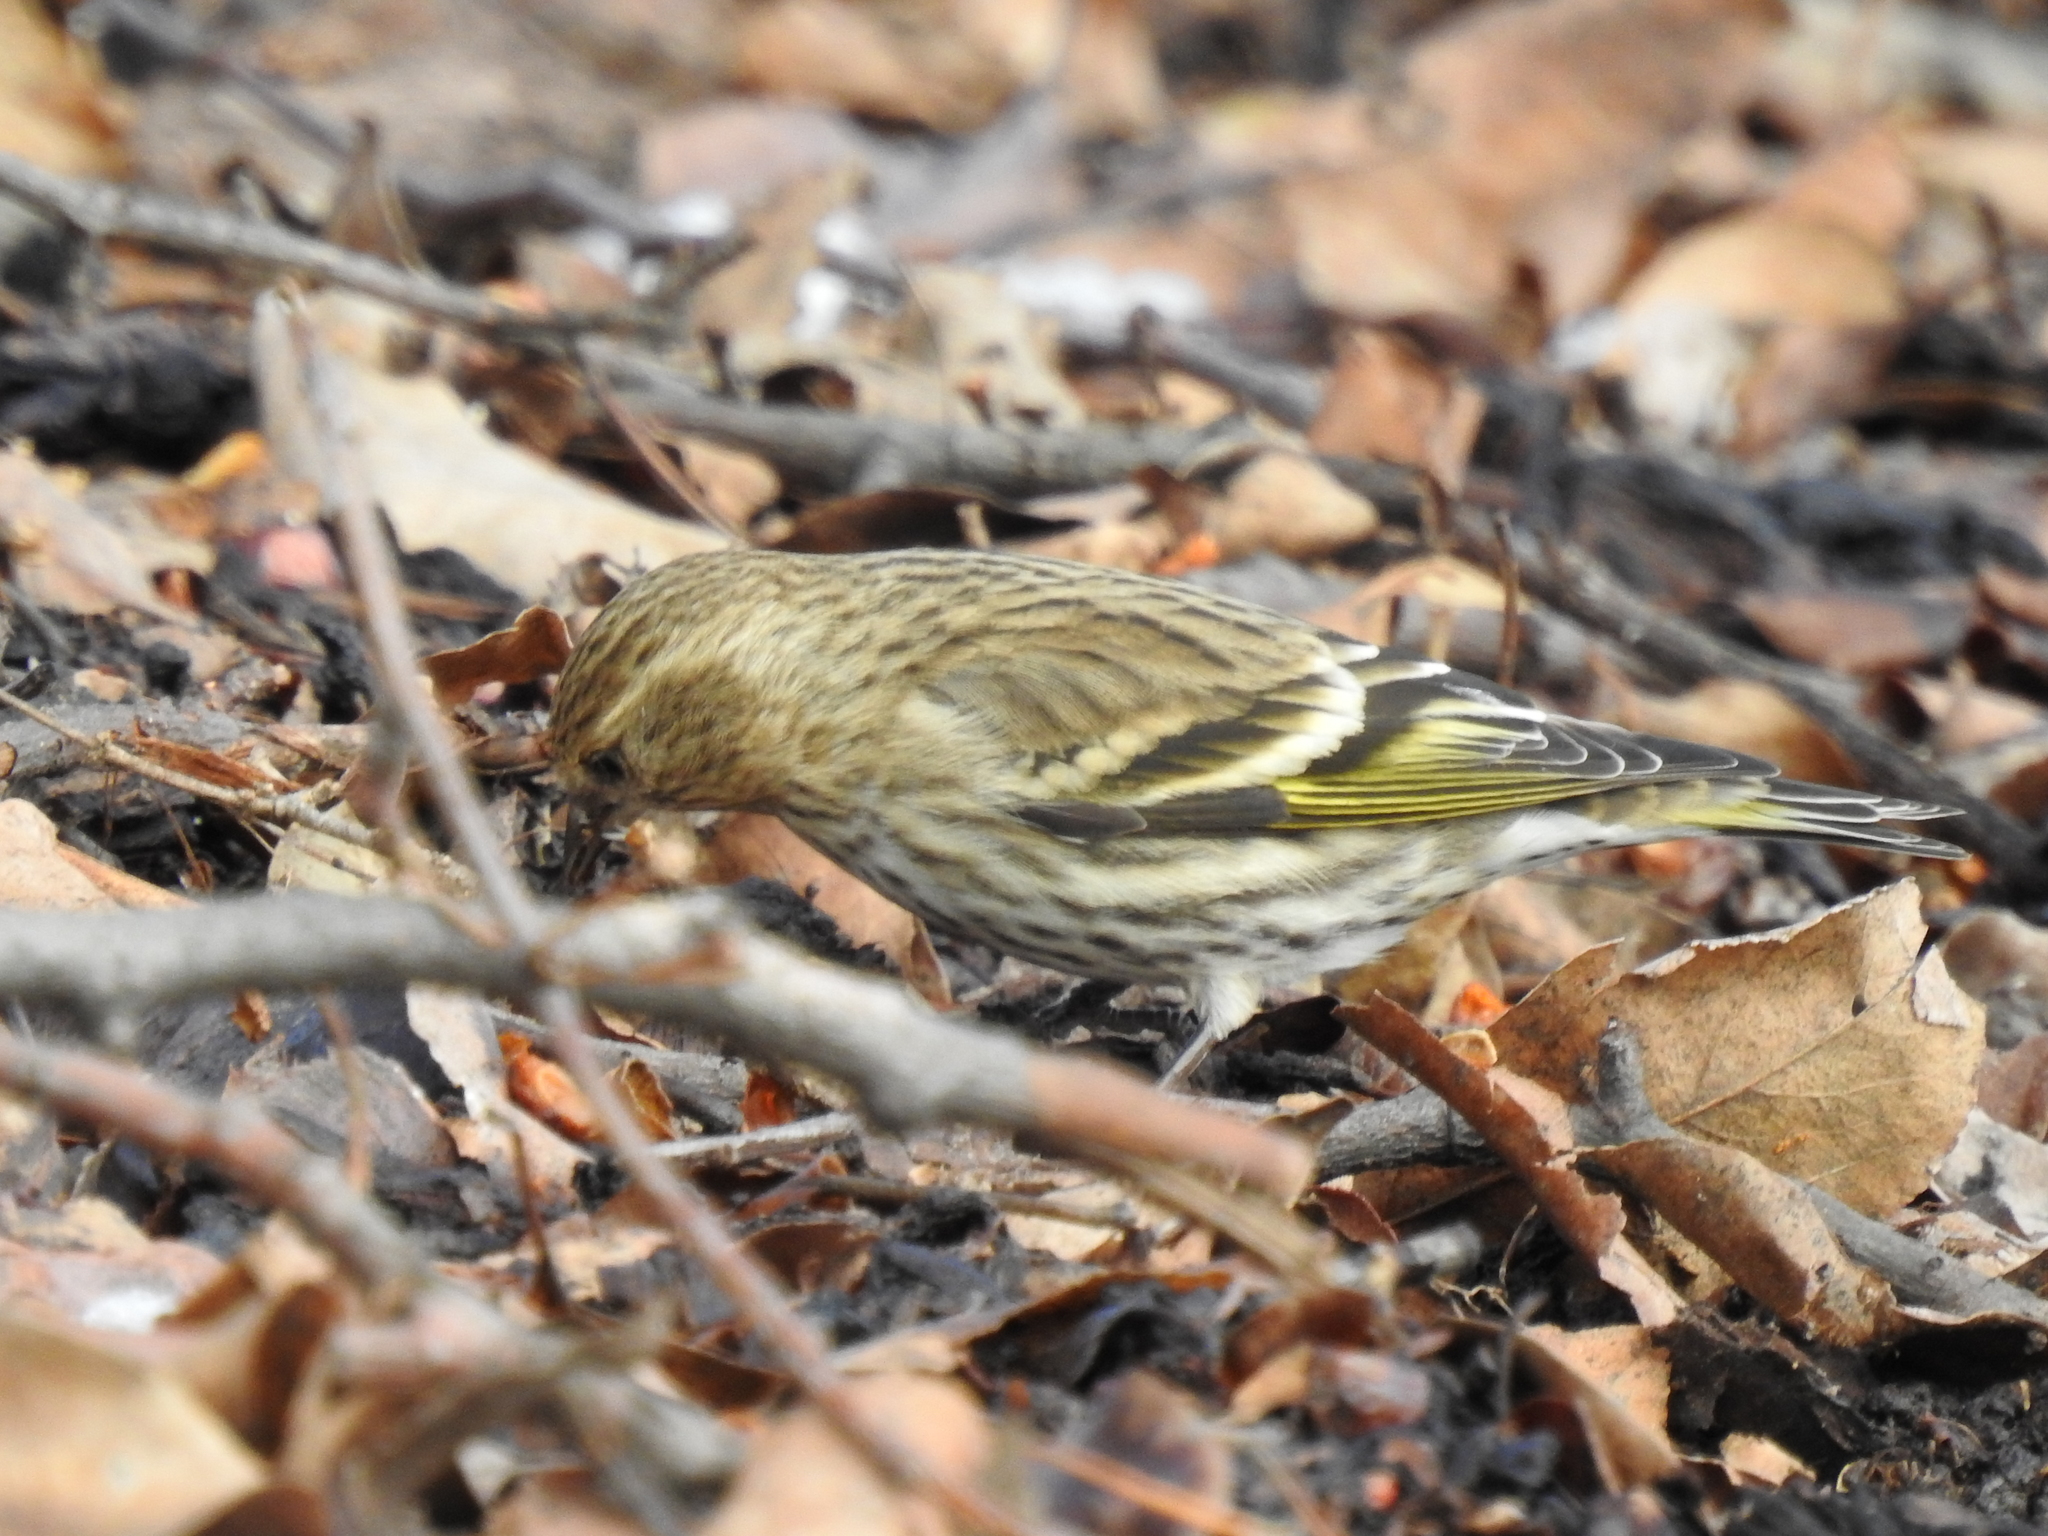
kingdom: Animalia
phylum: Chordata
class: Aves
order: Passeriformes
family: Fringillidae
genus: Spinus
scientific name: Spinus pinus
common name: Pine siskin
